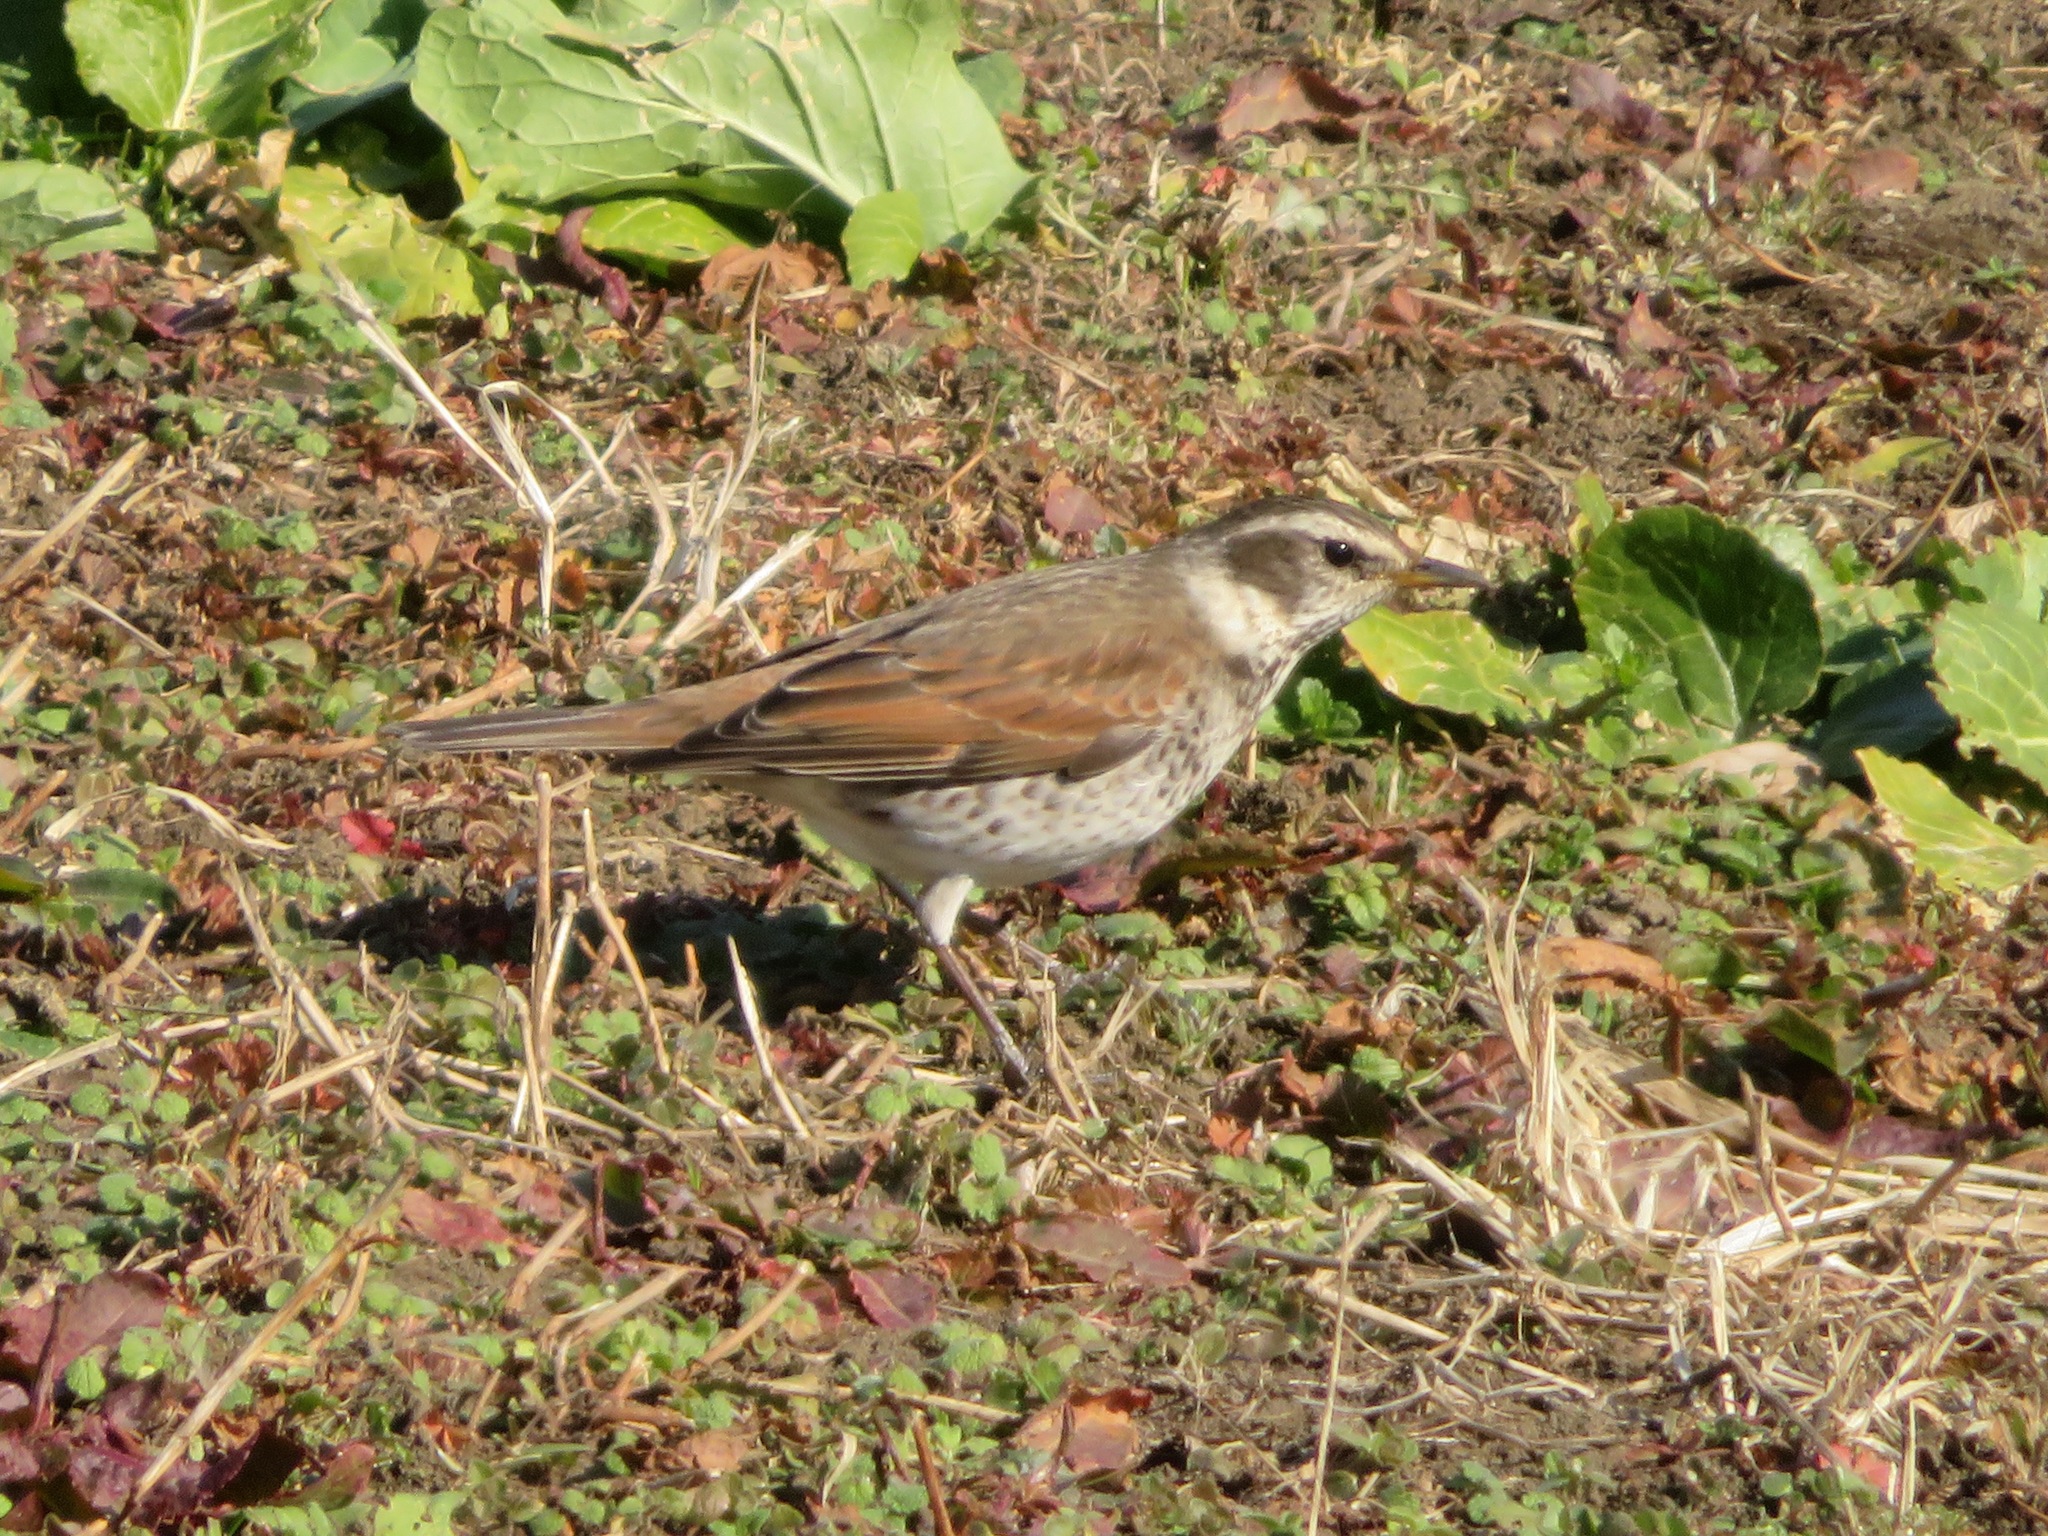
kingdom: Animalia
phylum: Chordata
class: Aves
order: Passeriformes
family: Turdidae
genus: Turdus
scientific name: Turdus eunomus
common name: Dusky thrush
